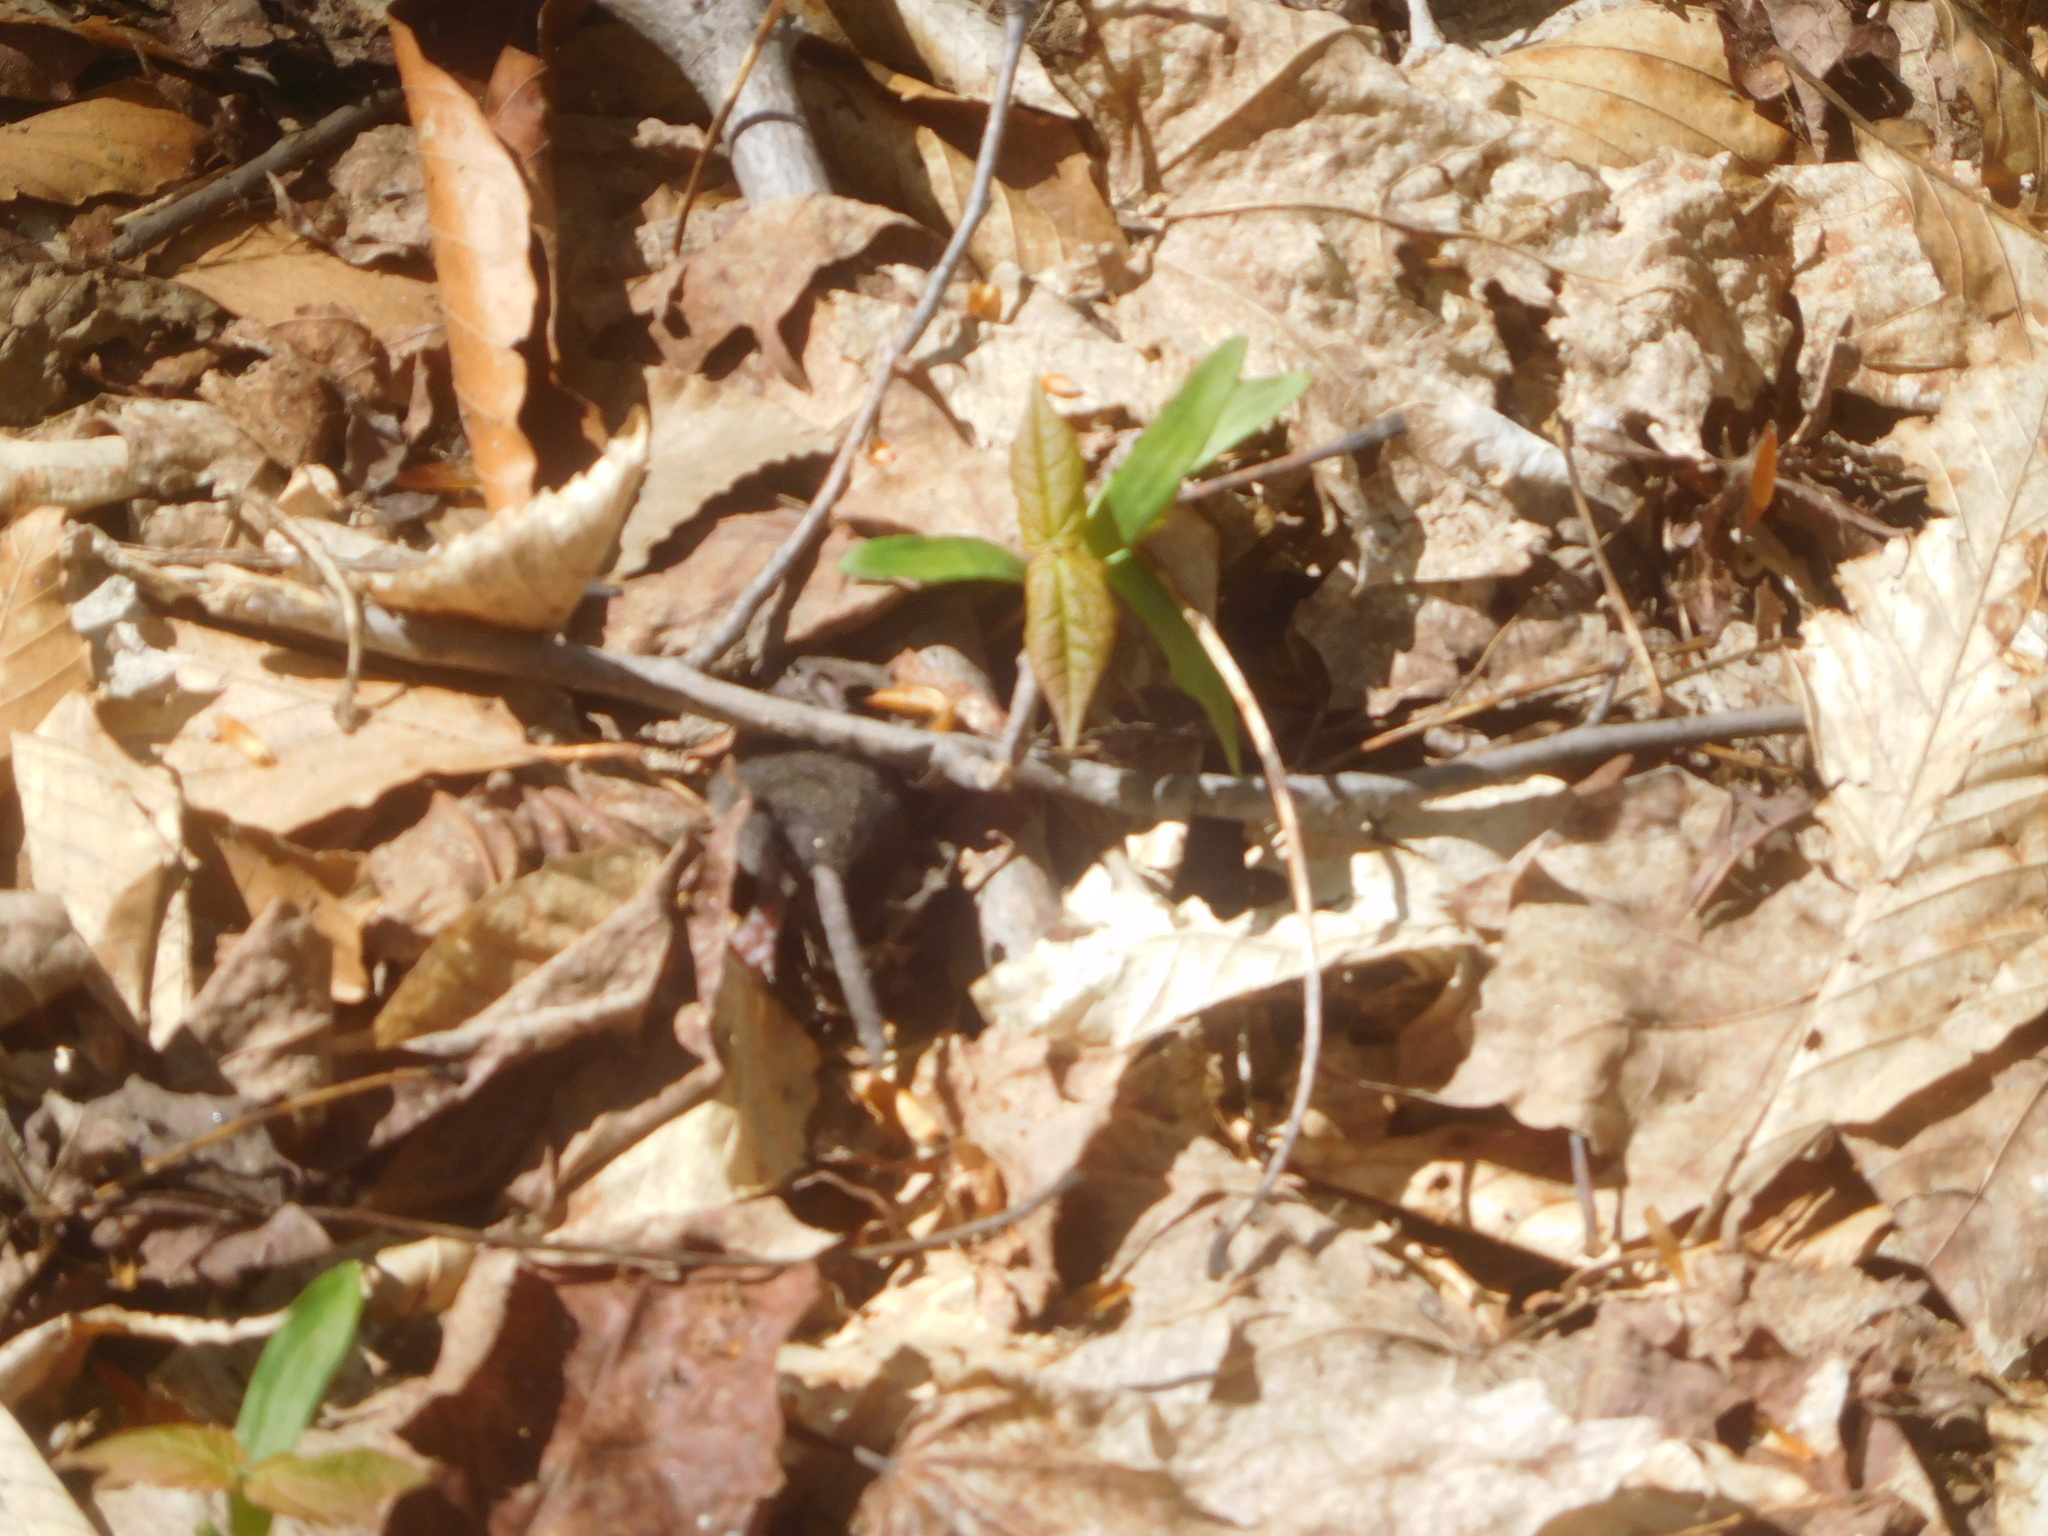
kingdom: Animalia
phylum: Chordata
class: Mammalia
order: Soricomorpha
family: Soricidae
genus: Blarina
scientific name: Blarina brevicauda
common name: Northern short-tailed shrew
